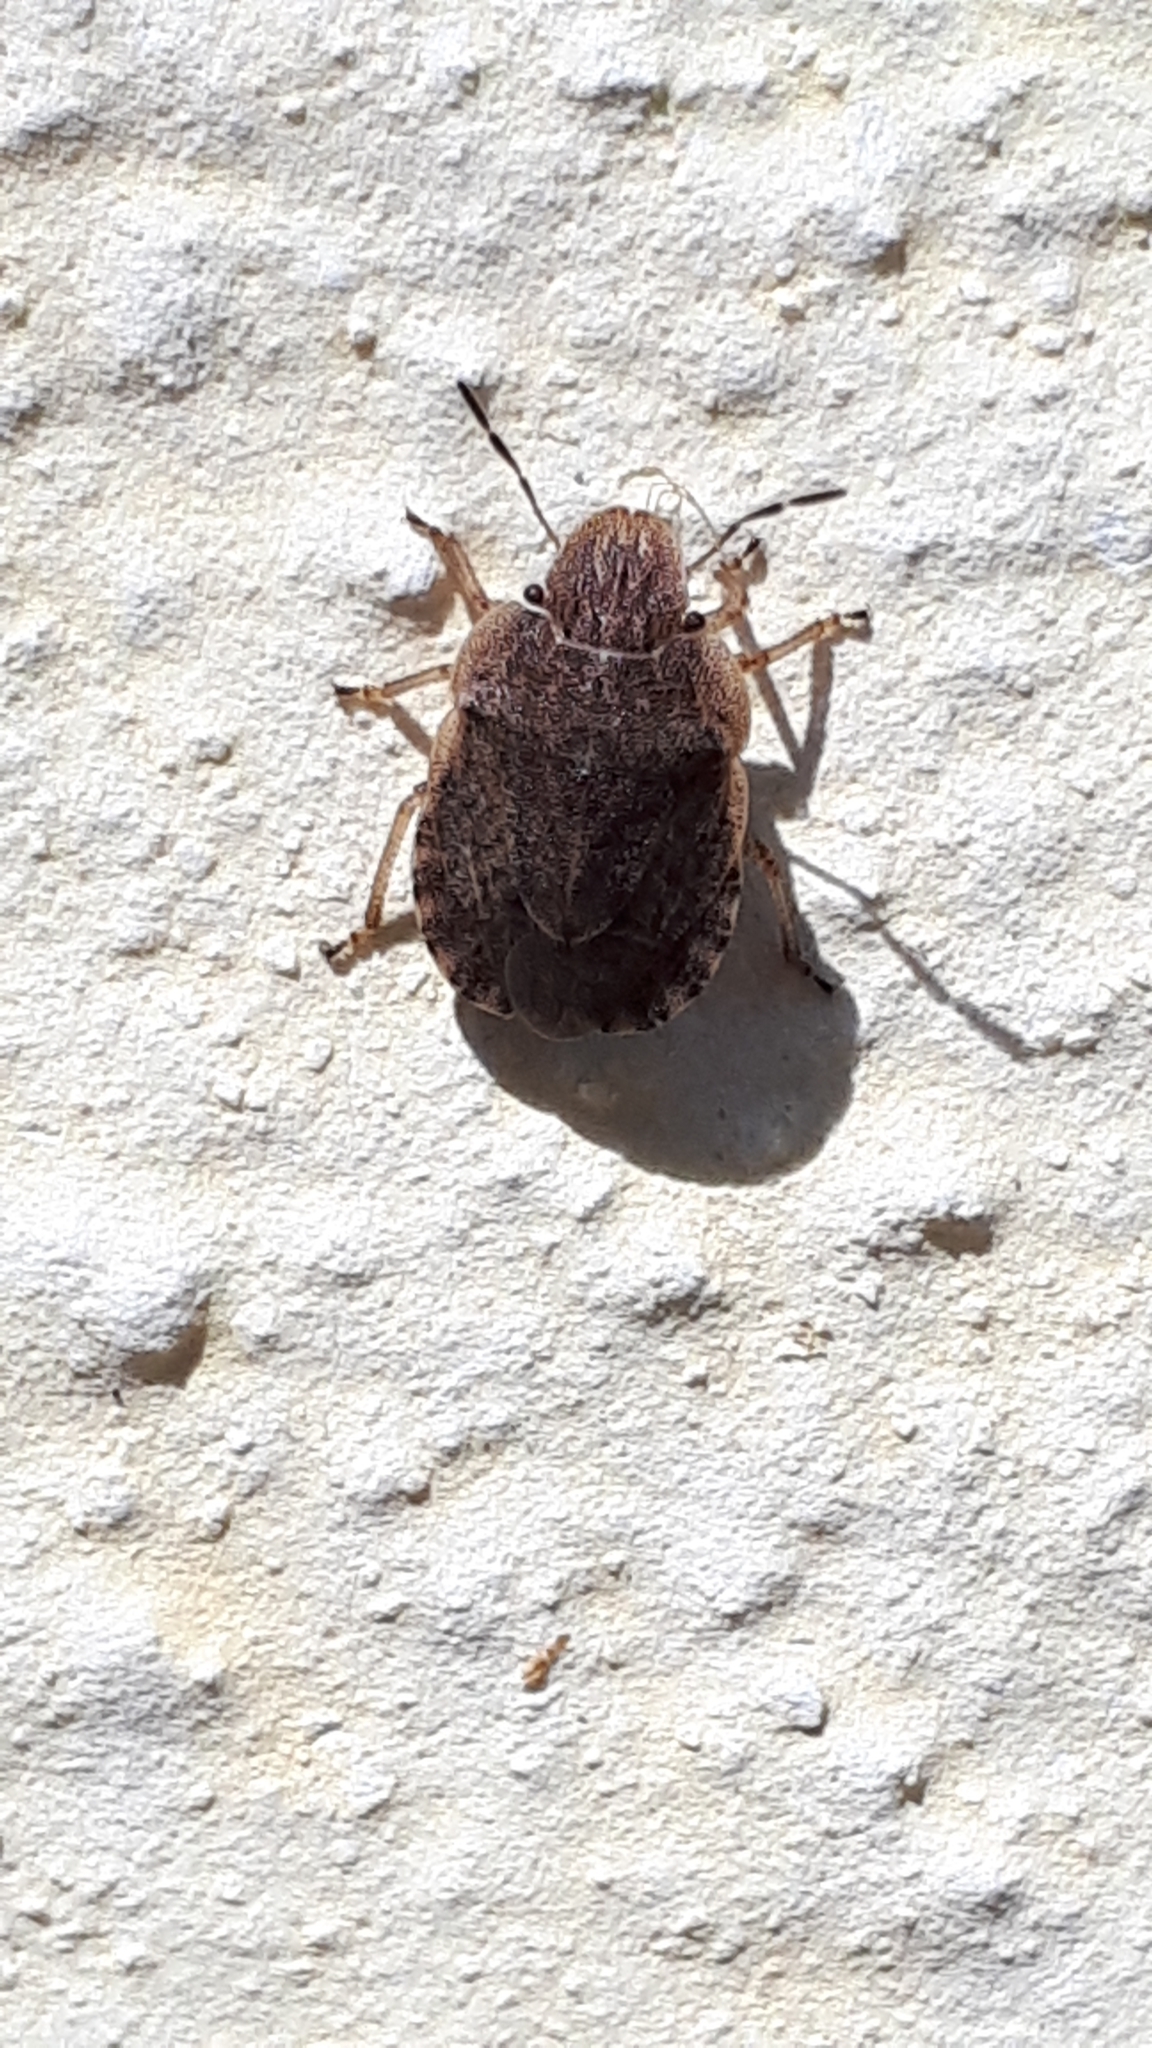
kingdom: Animalia
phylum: Arthropoda
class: Insecta
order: Hemiptera
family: Pentatomidae
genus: Sciocoris
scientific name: Sciocoris macrocephalus
